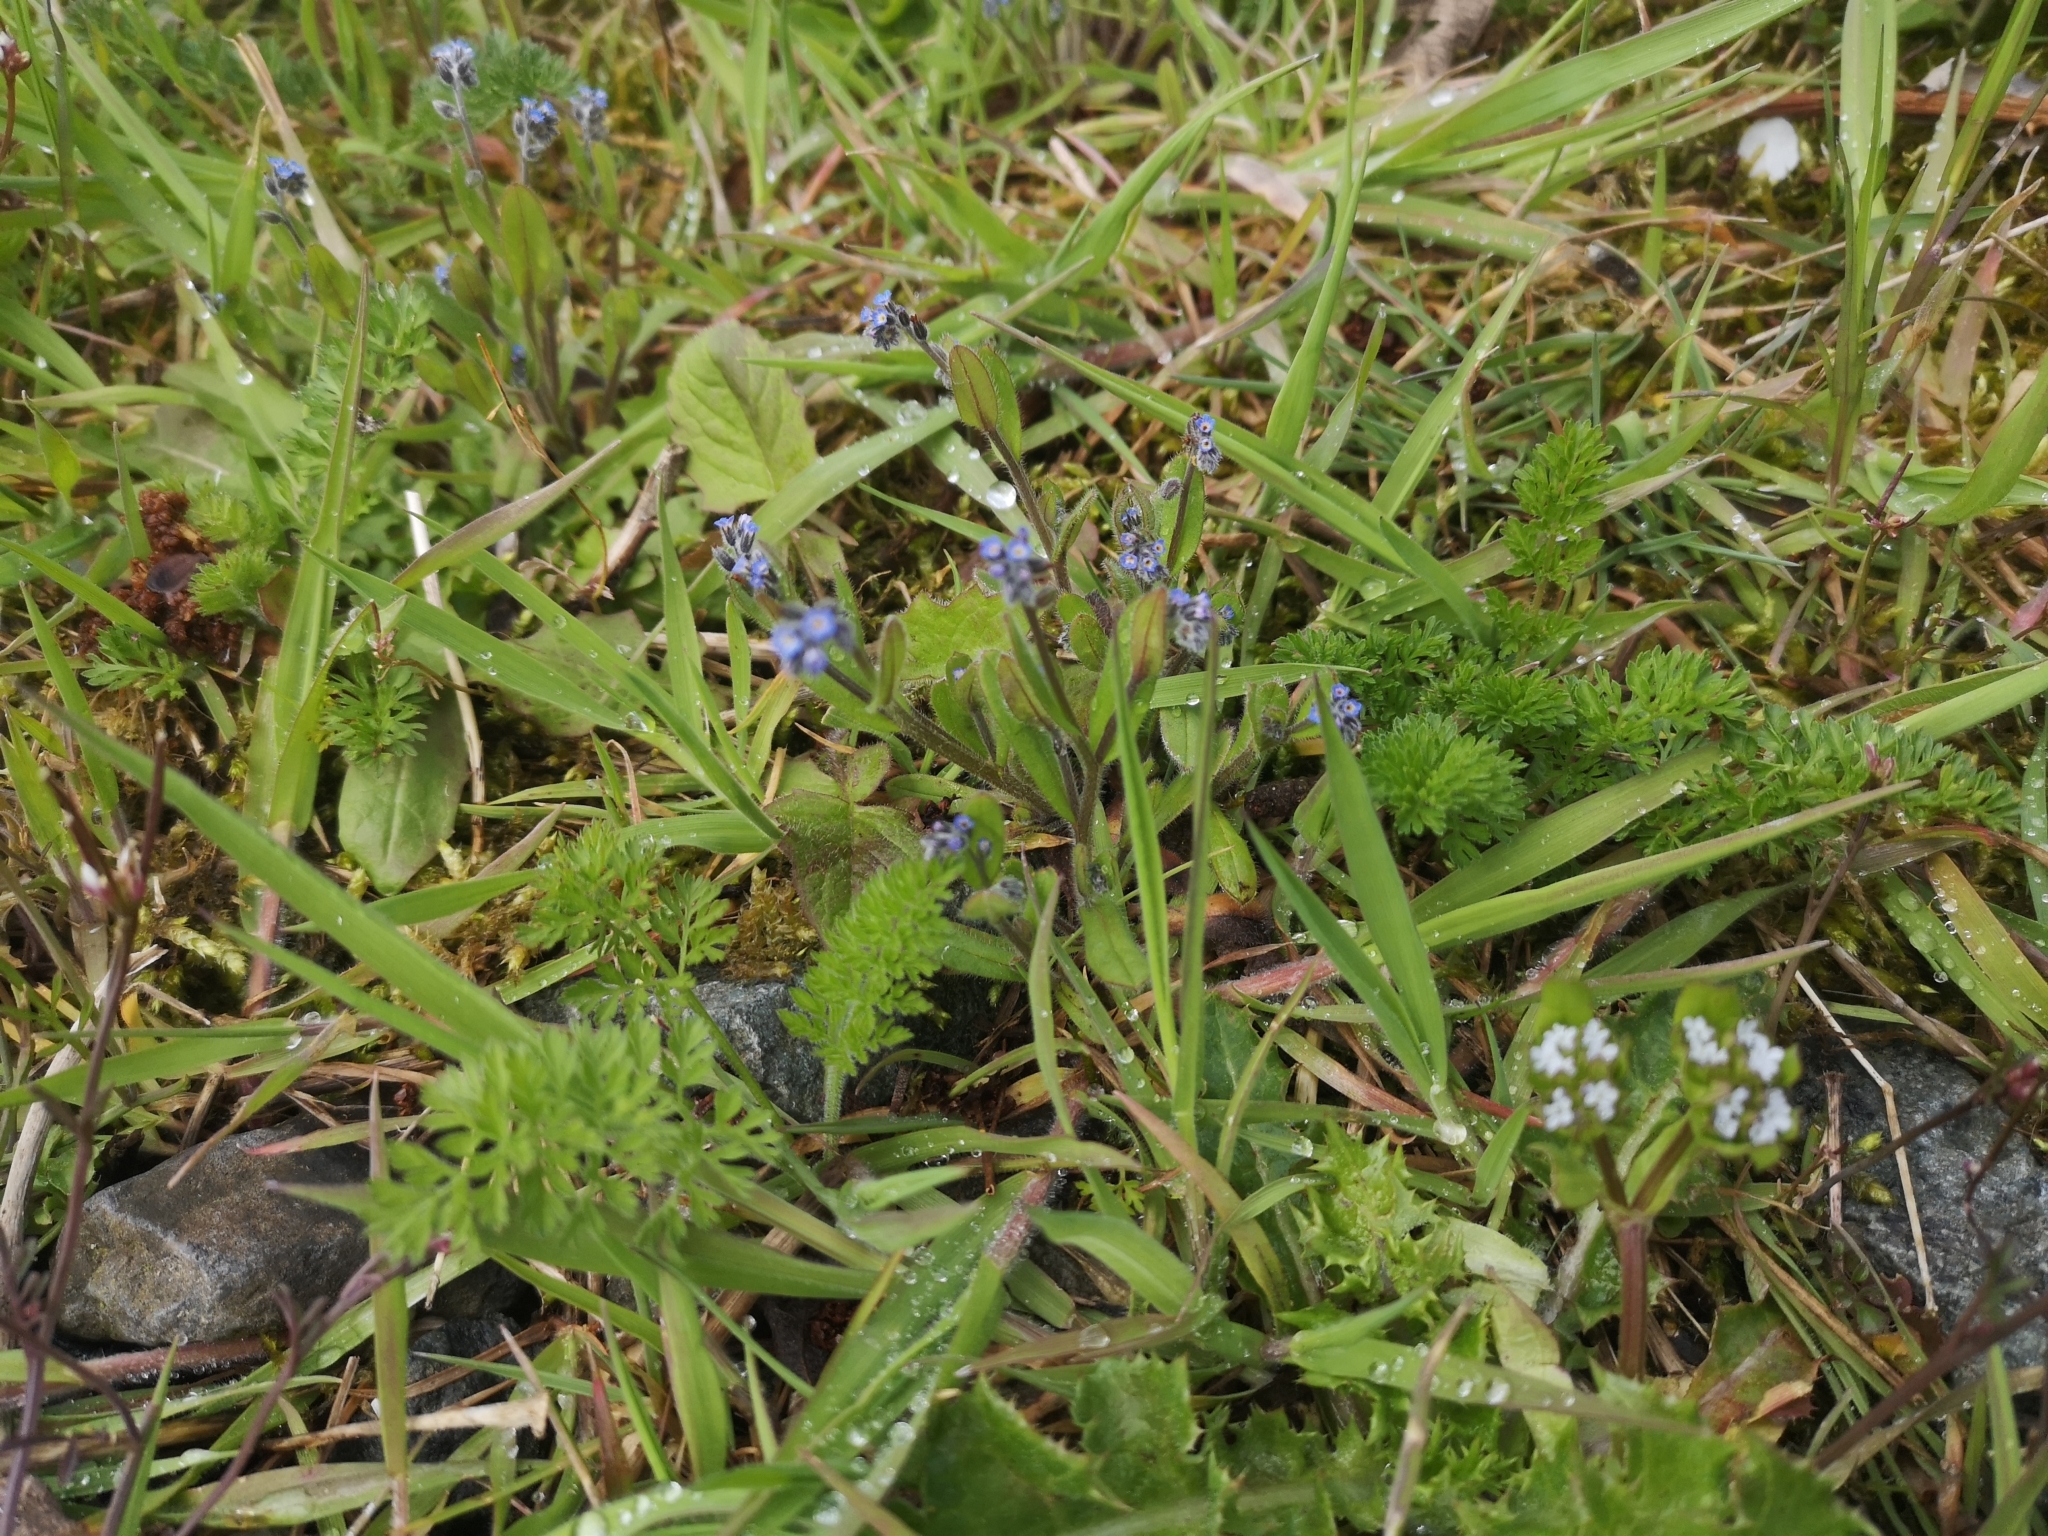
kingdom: Plantae
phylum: Tracheophyta
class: Magnoliopsida
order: Boraginales
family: Boraginaceae
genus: Myosotis
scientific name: Myosotis ramosissima
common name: Early forget-me-not
